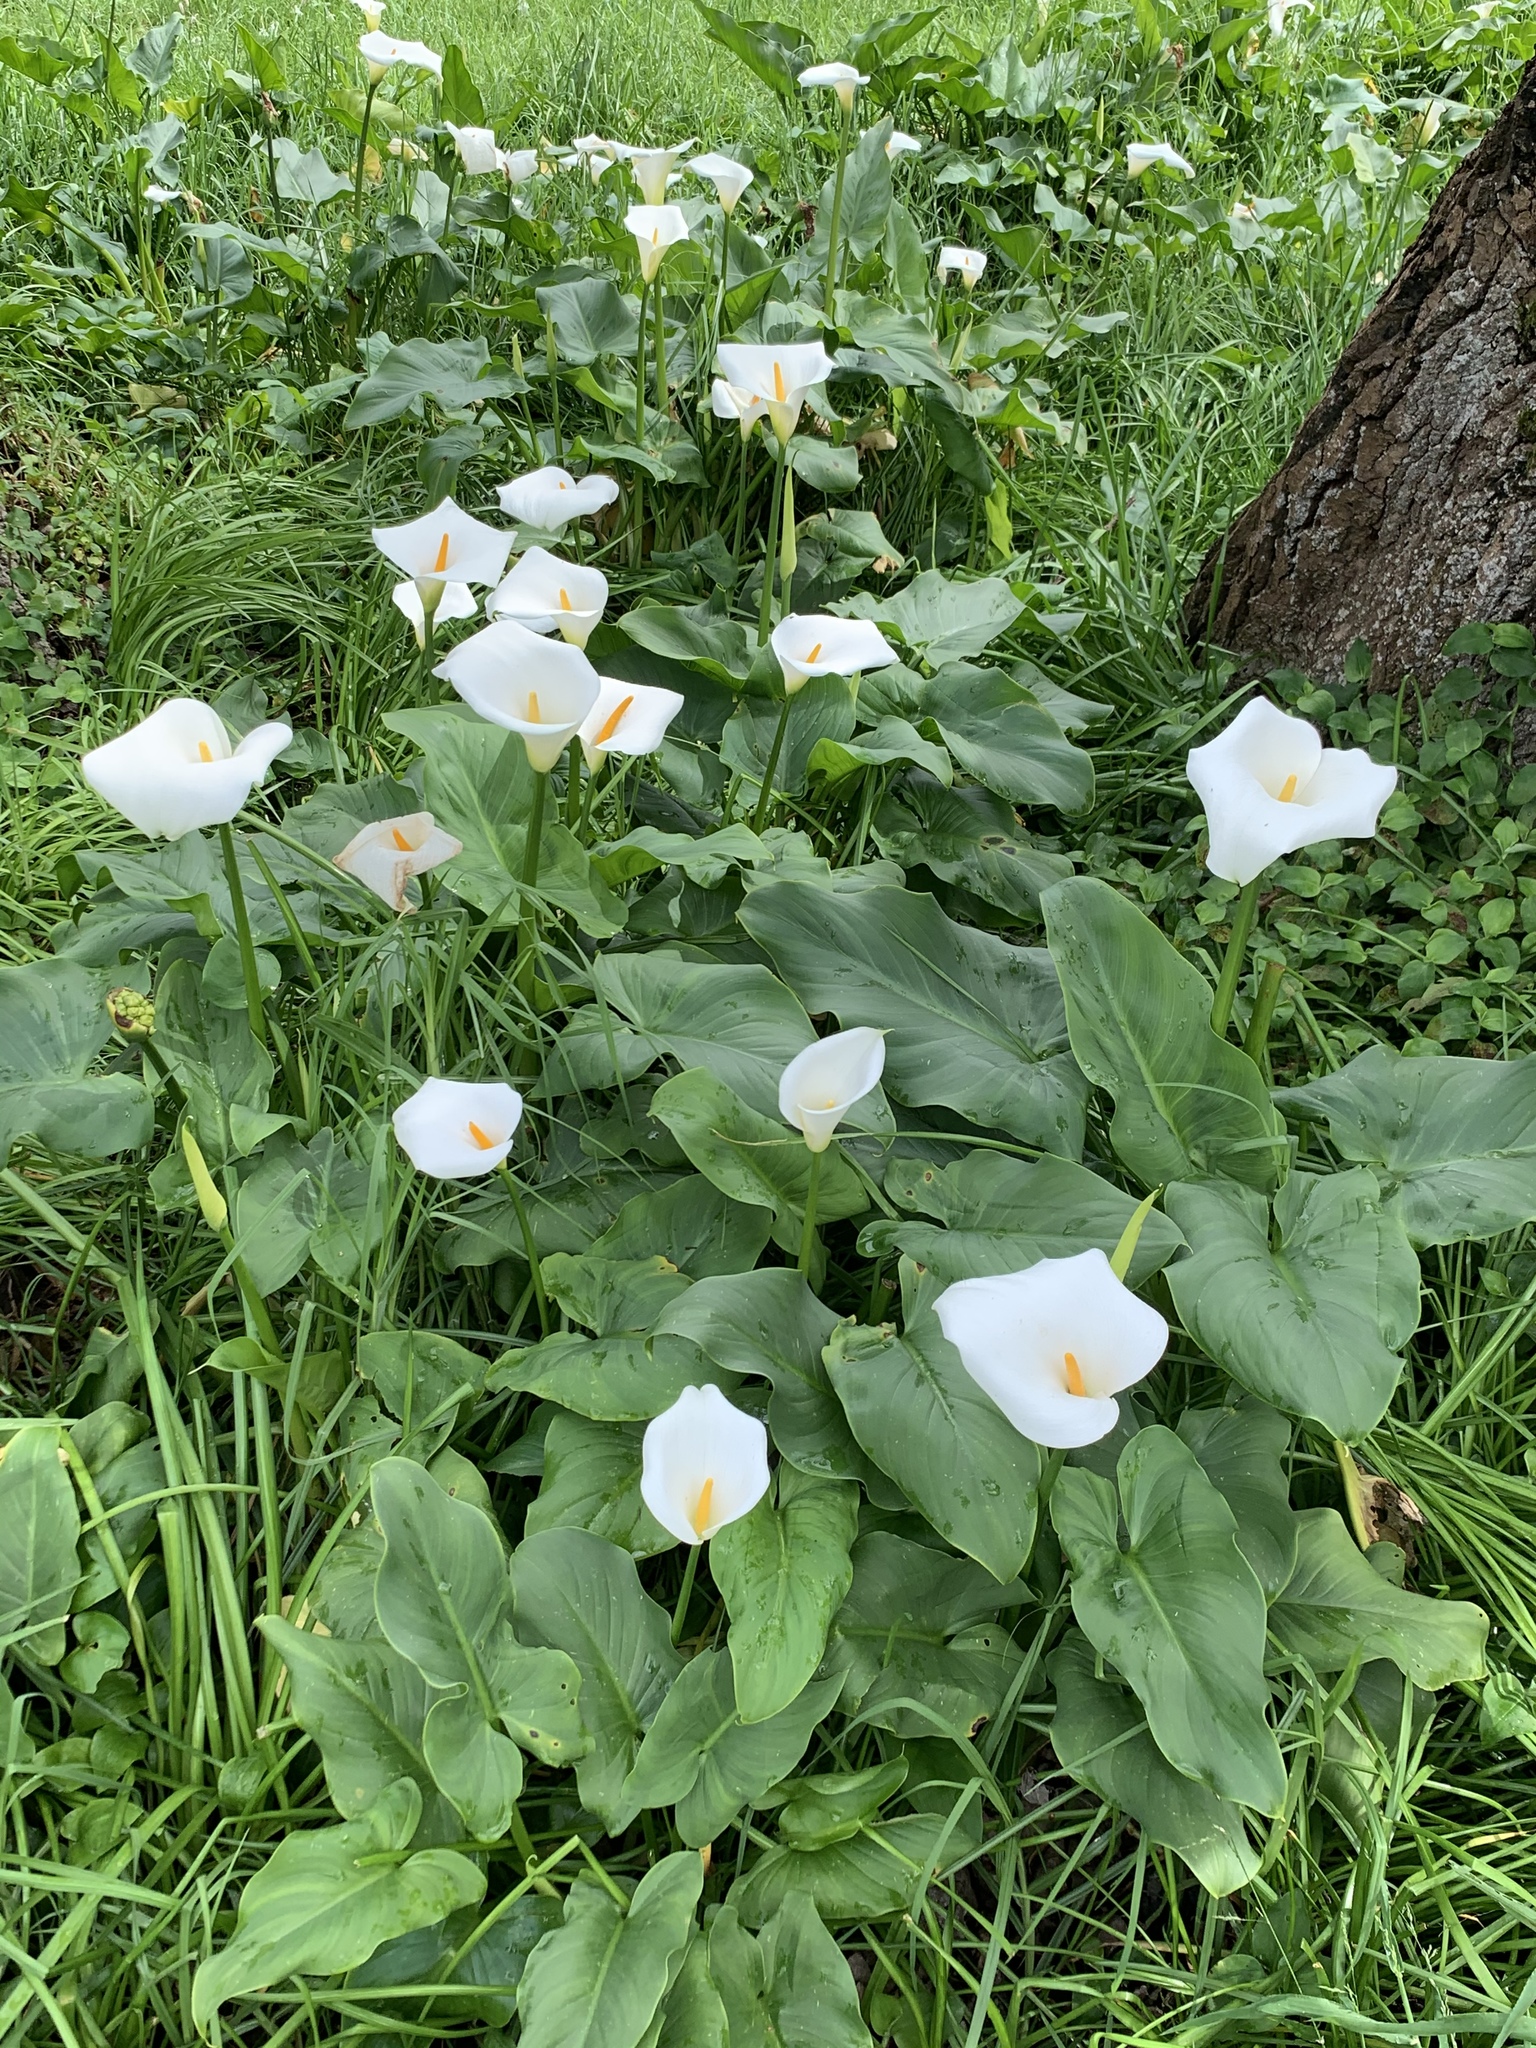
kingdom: Plantae
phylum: Tracheophyta
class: Liliopsida
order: Alismatales
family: Araceae
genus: Zantedeschia
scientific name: Zantedeschia aethiopica
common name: Altar-lily
